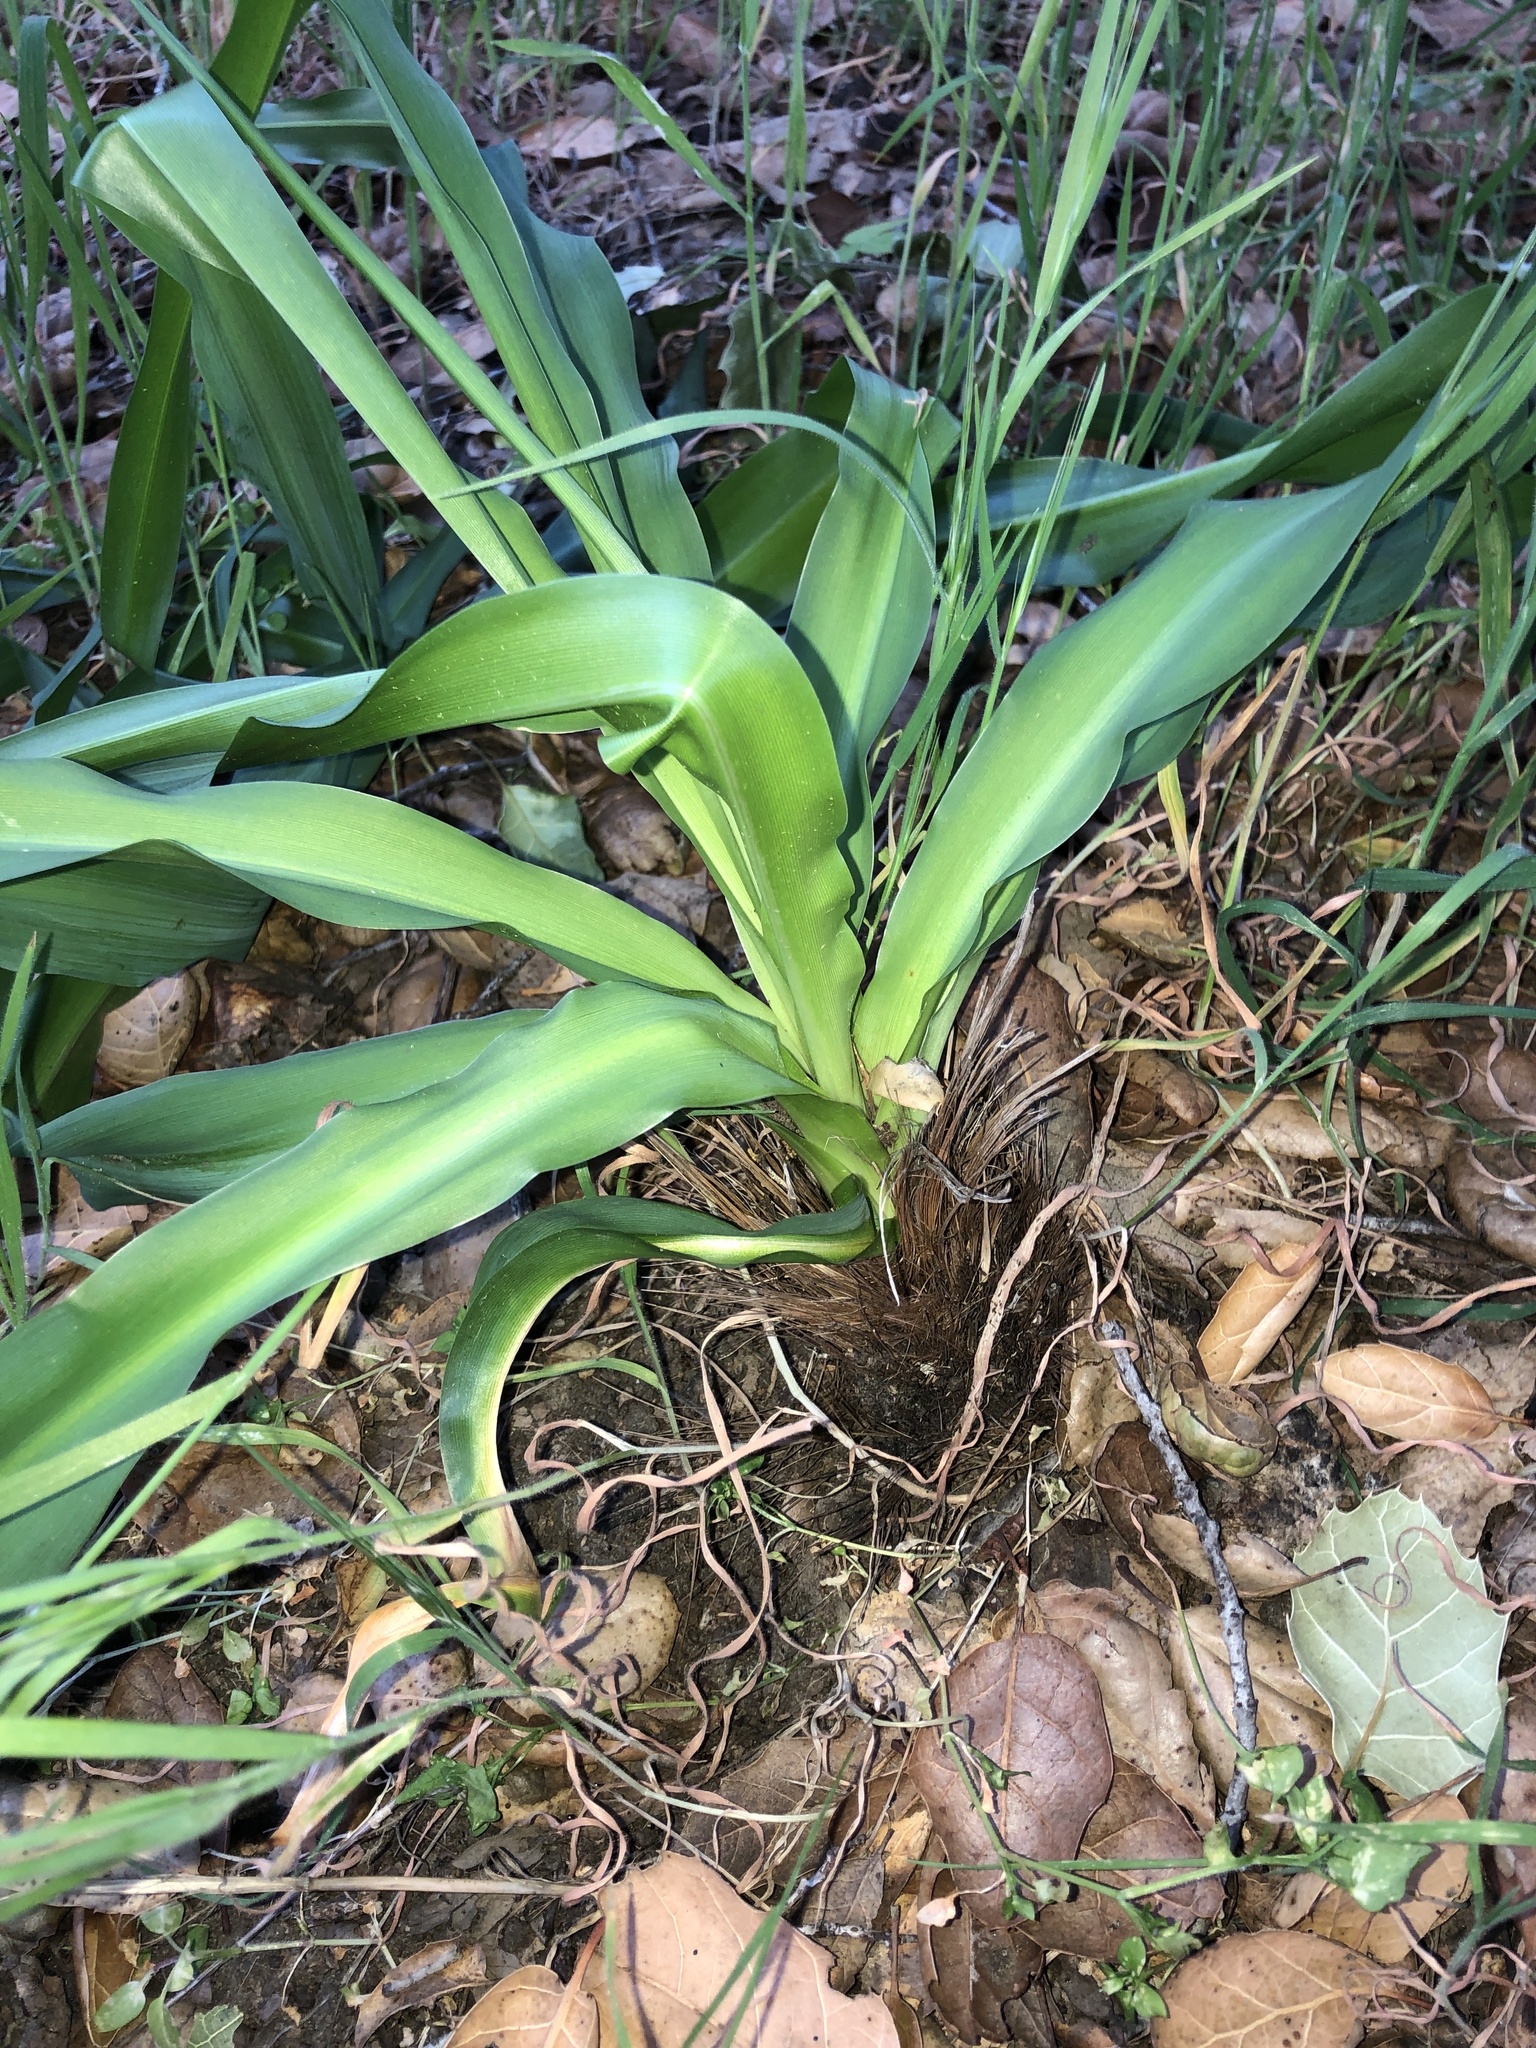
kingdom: Plantae
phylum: Tracheophyta
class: Liliopsida
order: Asparagales
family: Asparagaceae
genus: Chlorogalum
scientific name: Chlorogalum pomeridianum
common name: Amole
